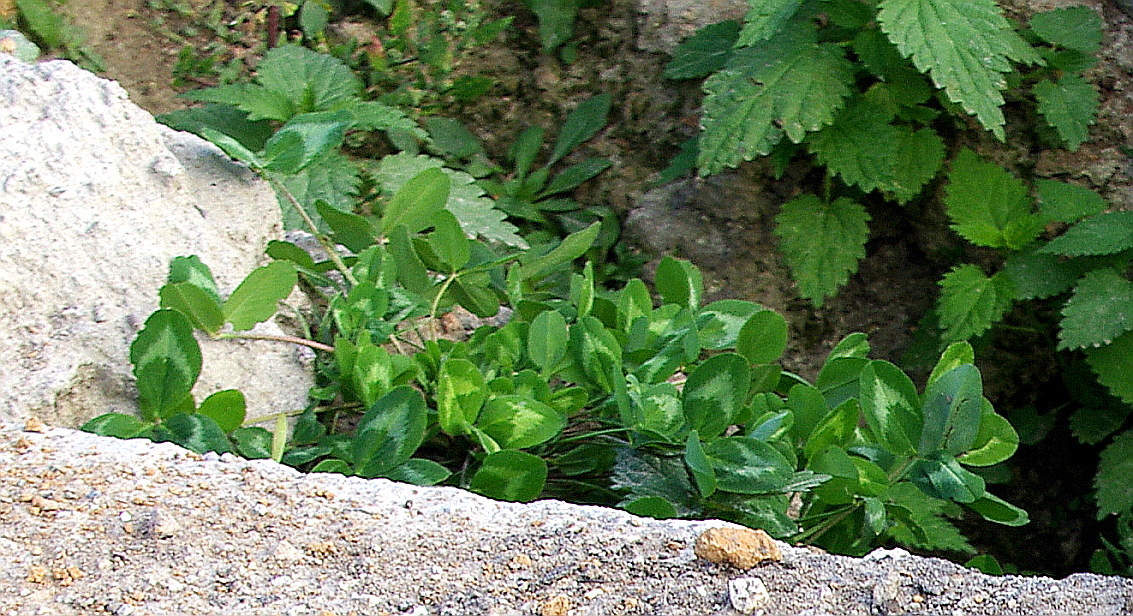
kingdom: Plantae
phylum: Tracheophyta
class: Magnoliopsida
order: Fabales
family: Fabaceae
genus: Trifolium
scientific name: Trifolium pratense
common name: Red clover
